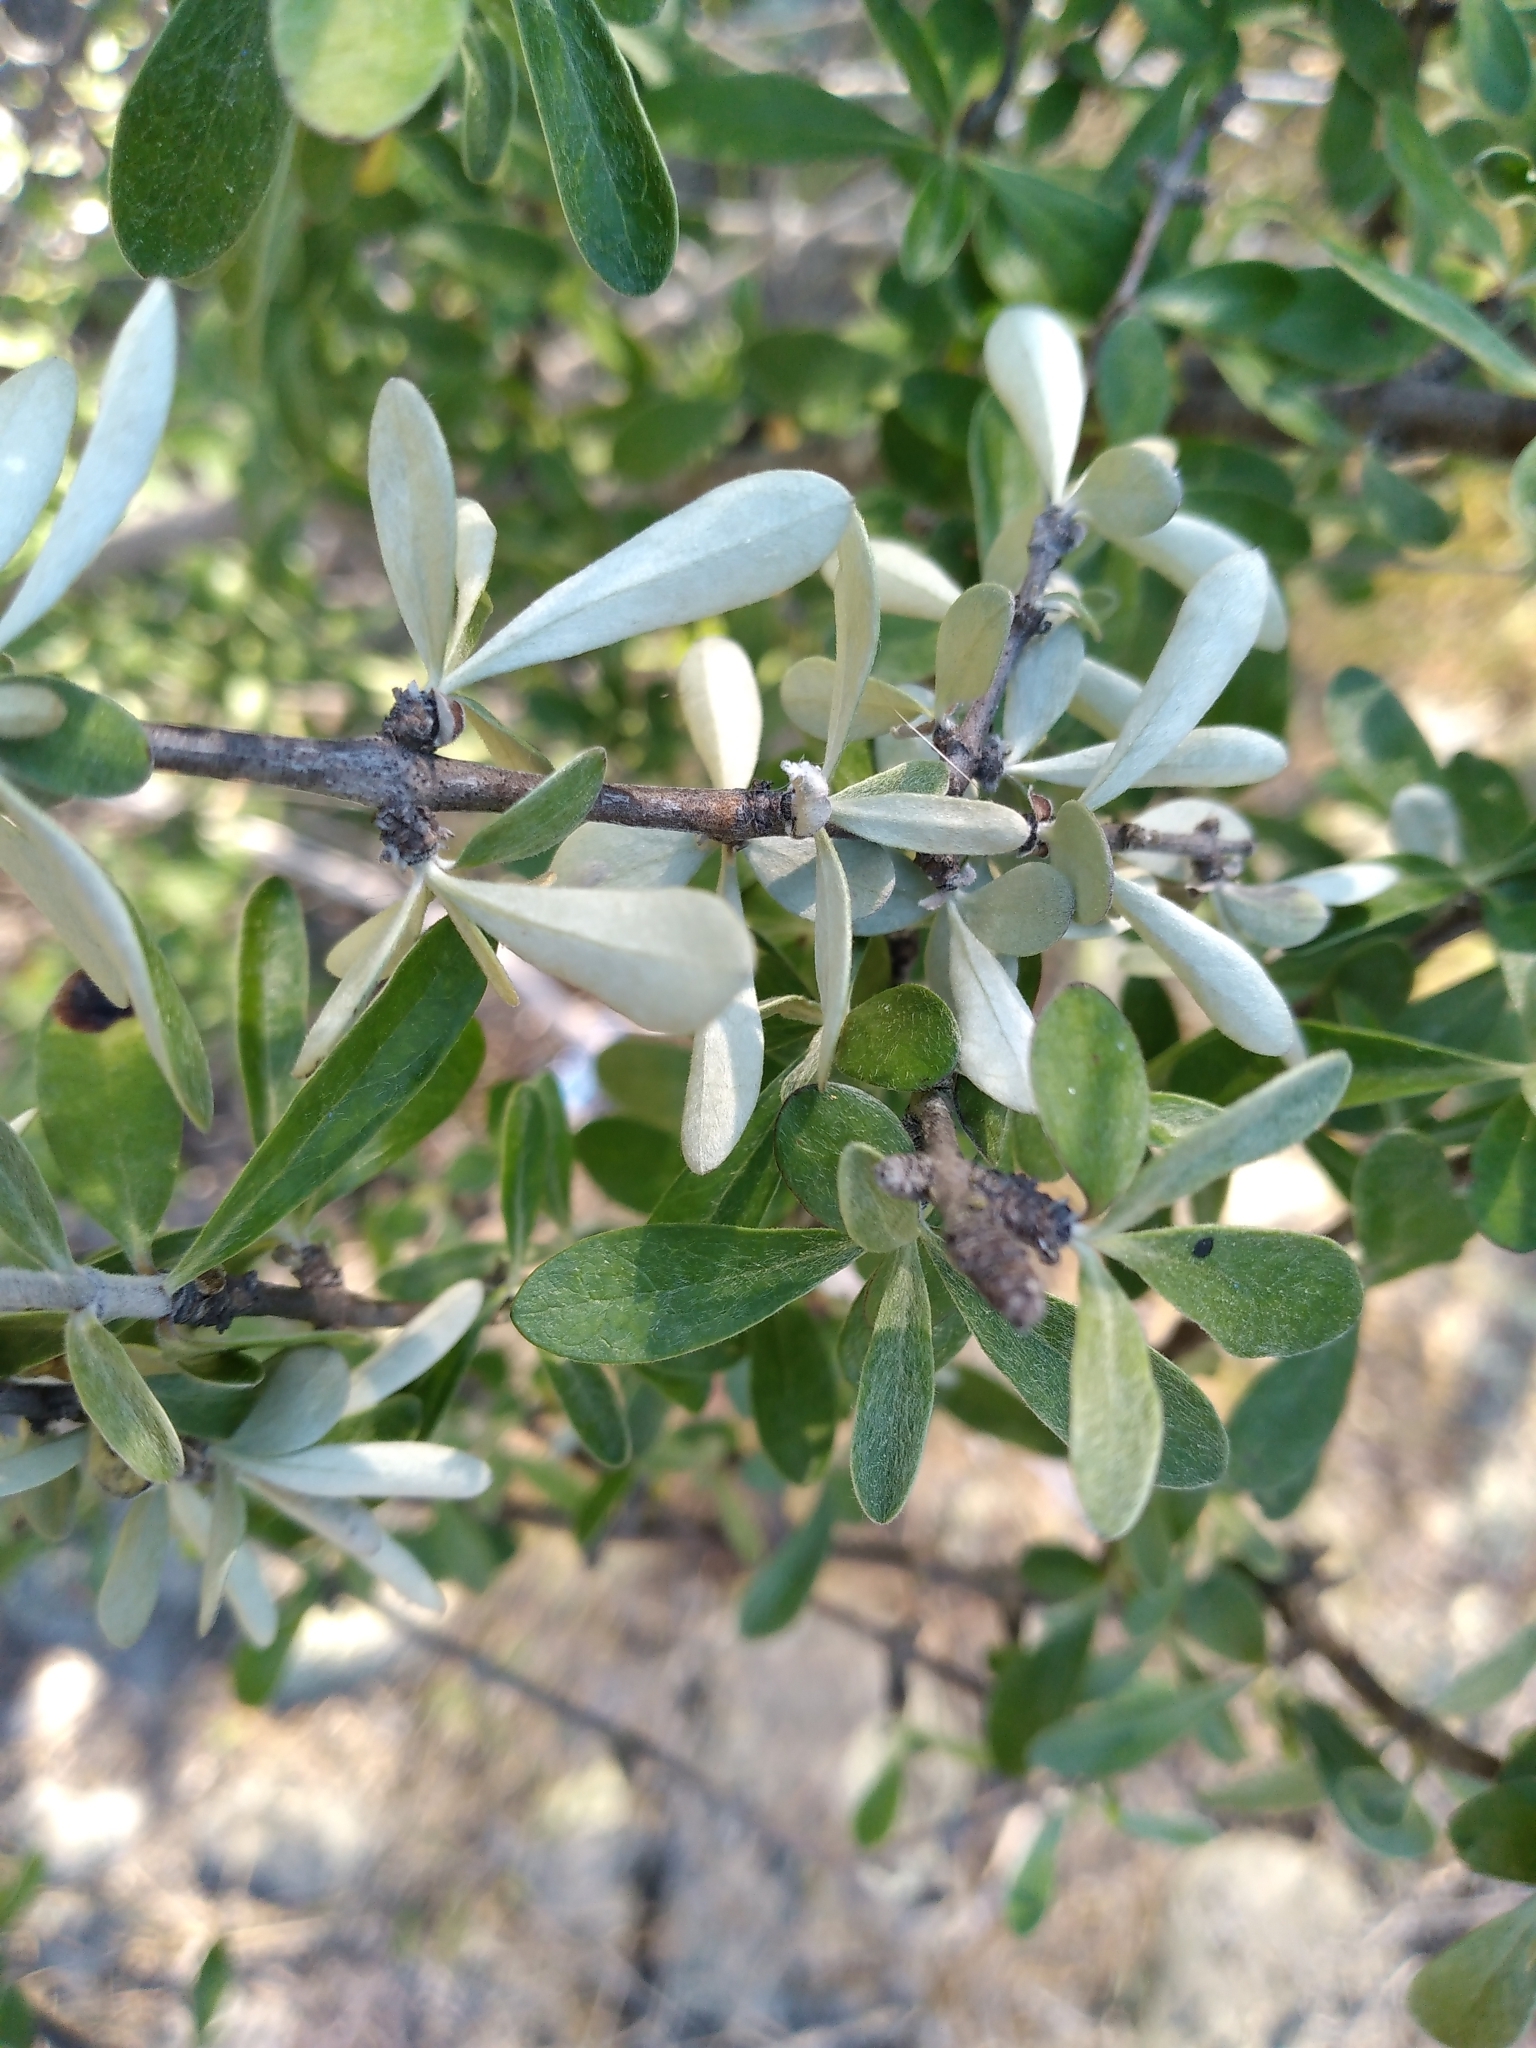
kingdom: Plantae
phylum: Tracheophyta
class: Magnoliopsida
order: Asterales
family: Asteraceae
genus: Olearia
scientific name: Olearia odorata
